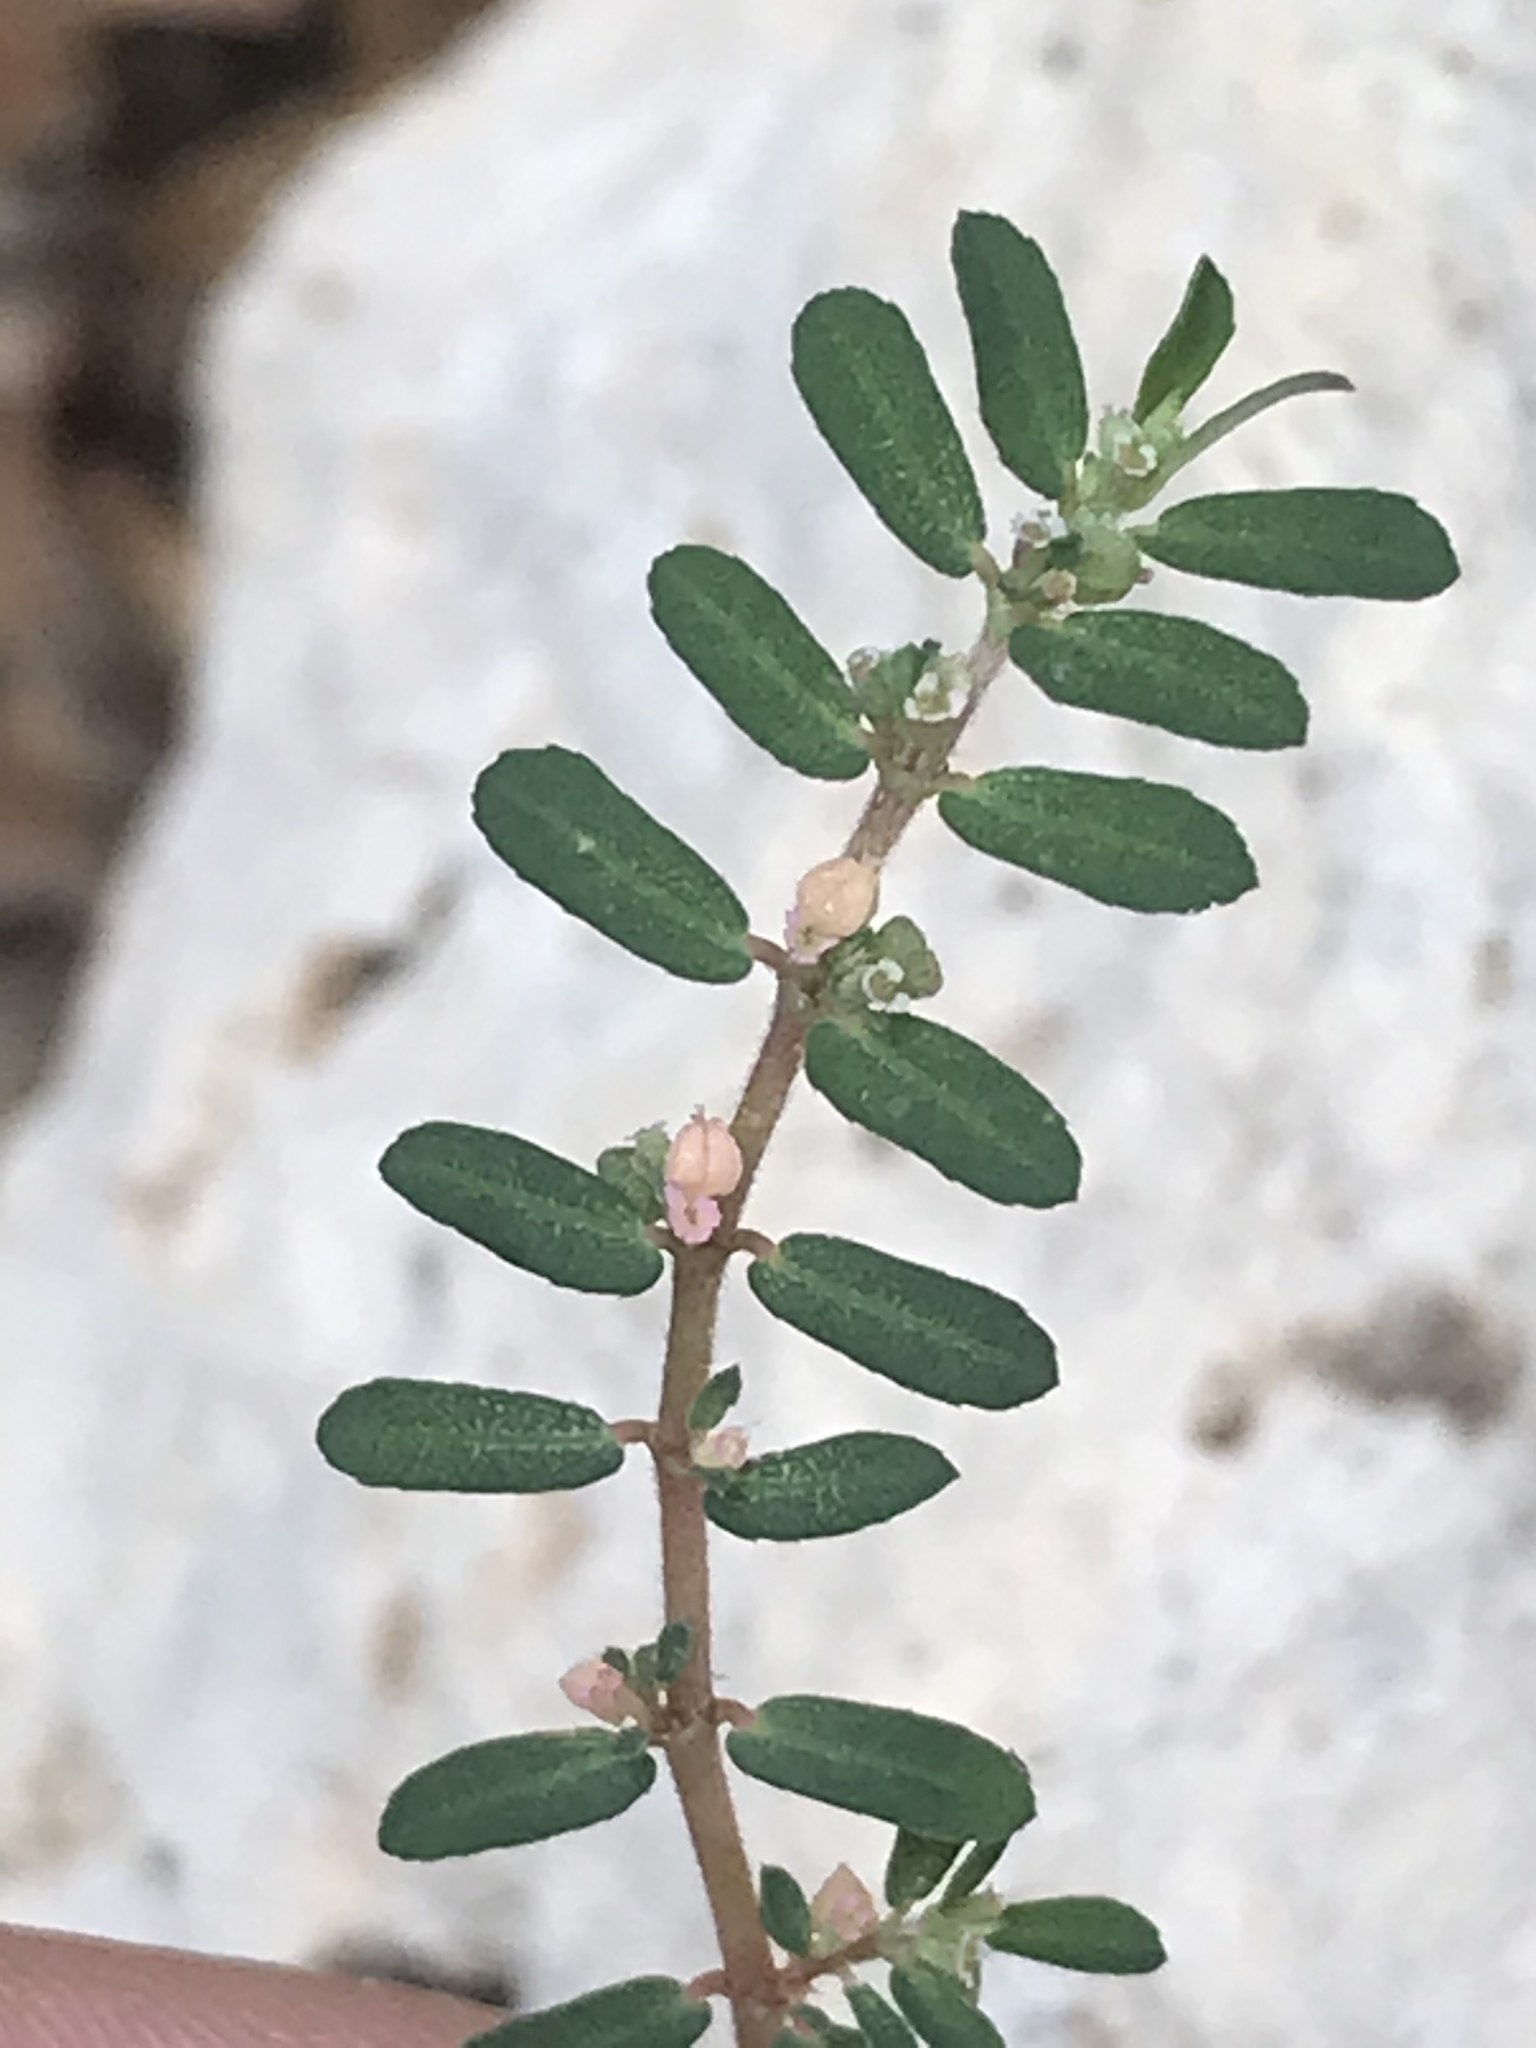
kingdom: Plantae
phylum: Tracheophyta
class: Magnoliopsida
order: Malpighiales
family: Euphorbiaceae
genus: Euphorbia
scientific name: Euphorbia maculata
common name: Spotted spurge
